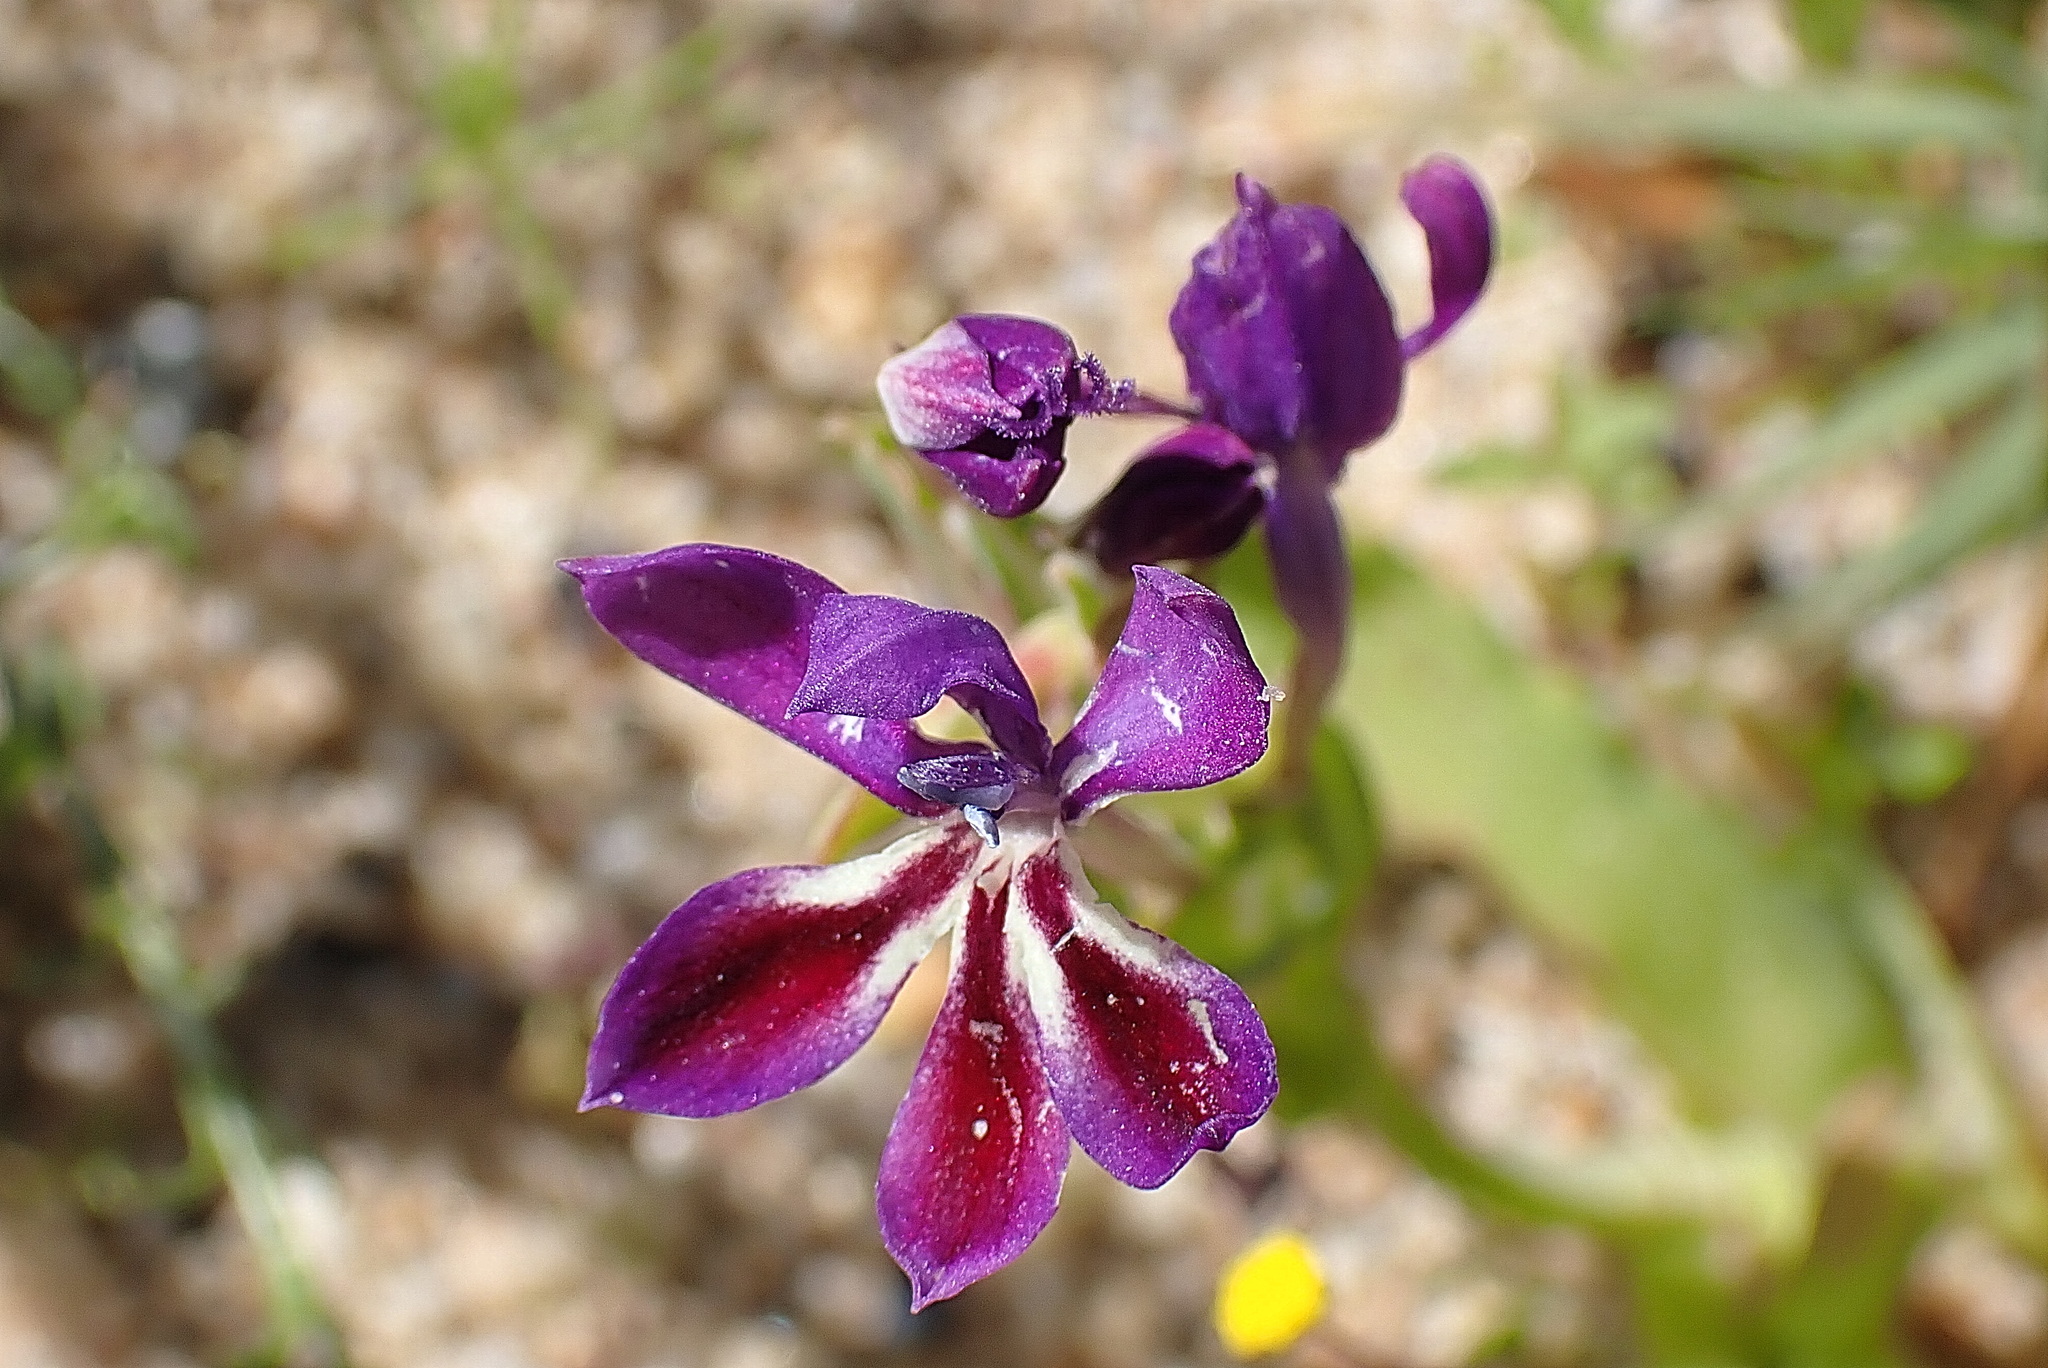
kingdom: Plantae
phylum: Tracheophyta
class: Liliopsida
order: Asparagales
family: Iridaceae
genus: Lapeirousia
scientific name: Lapeirousia jacquinii
